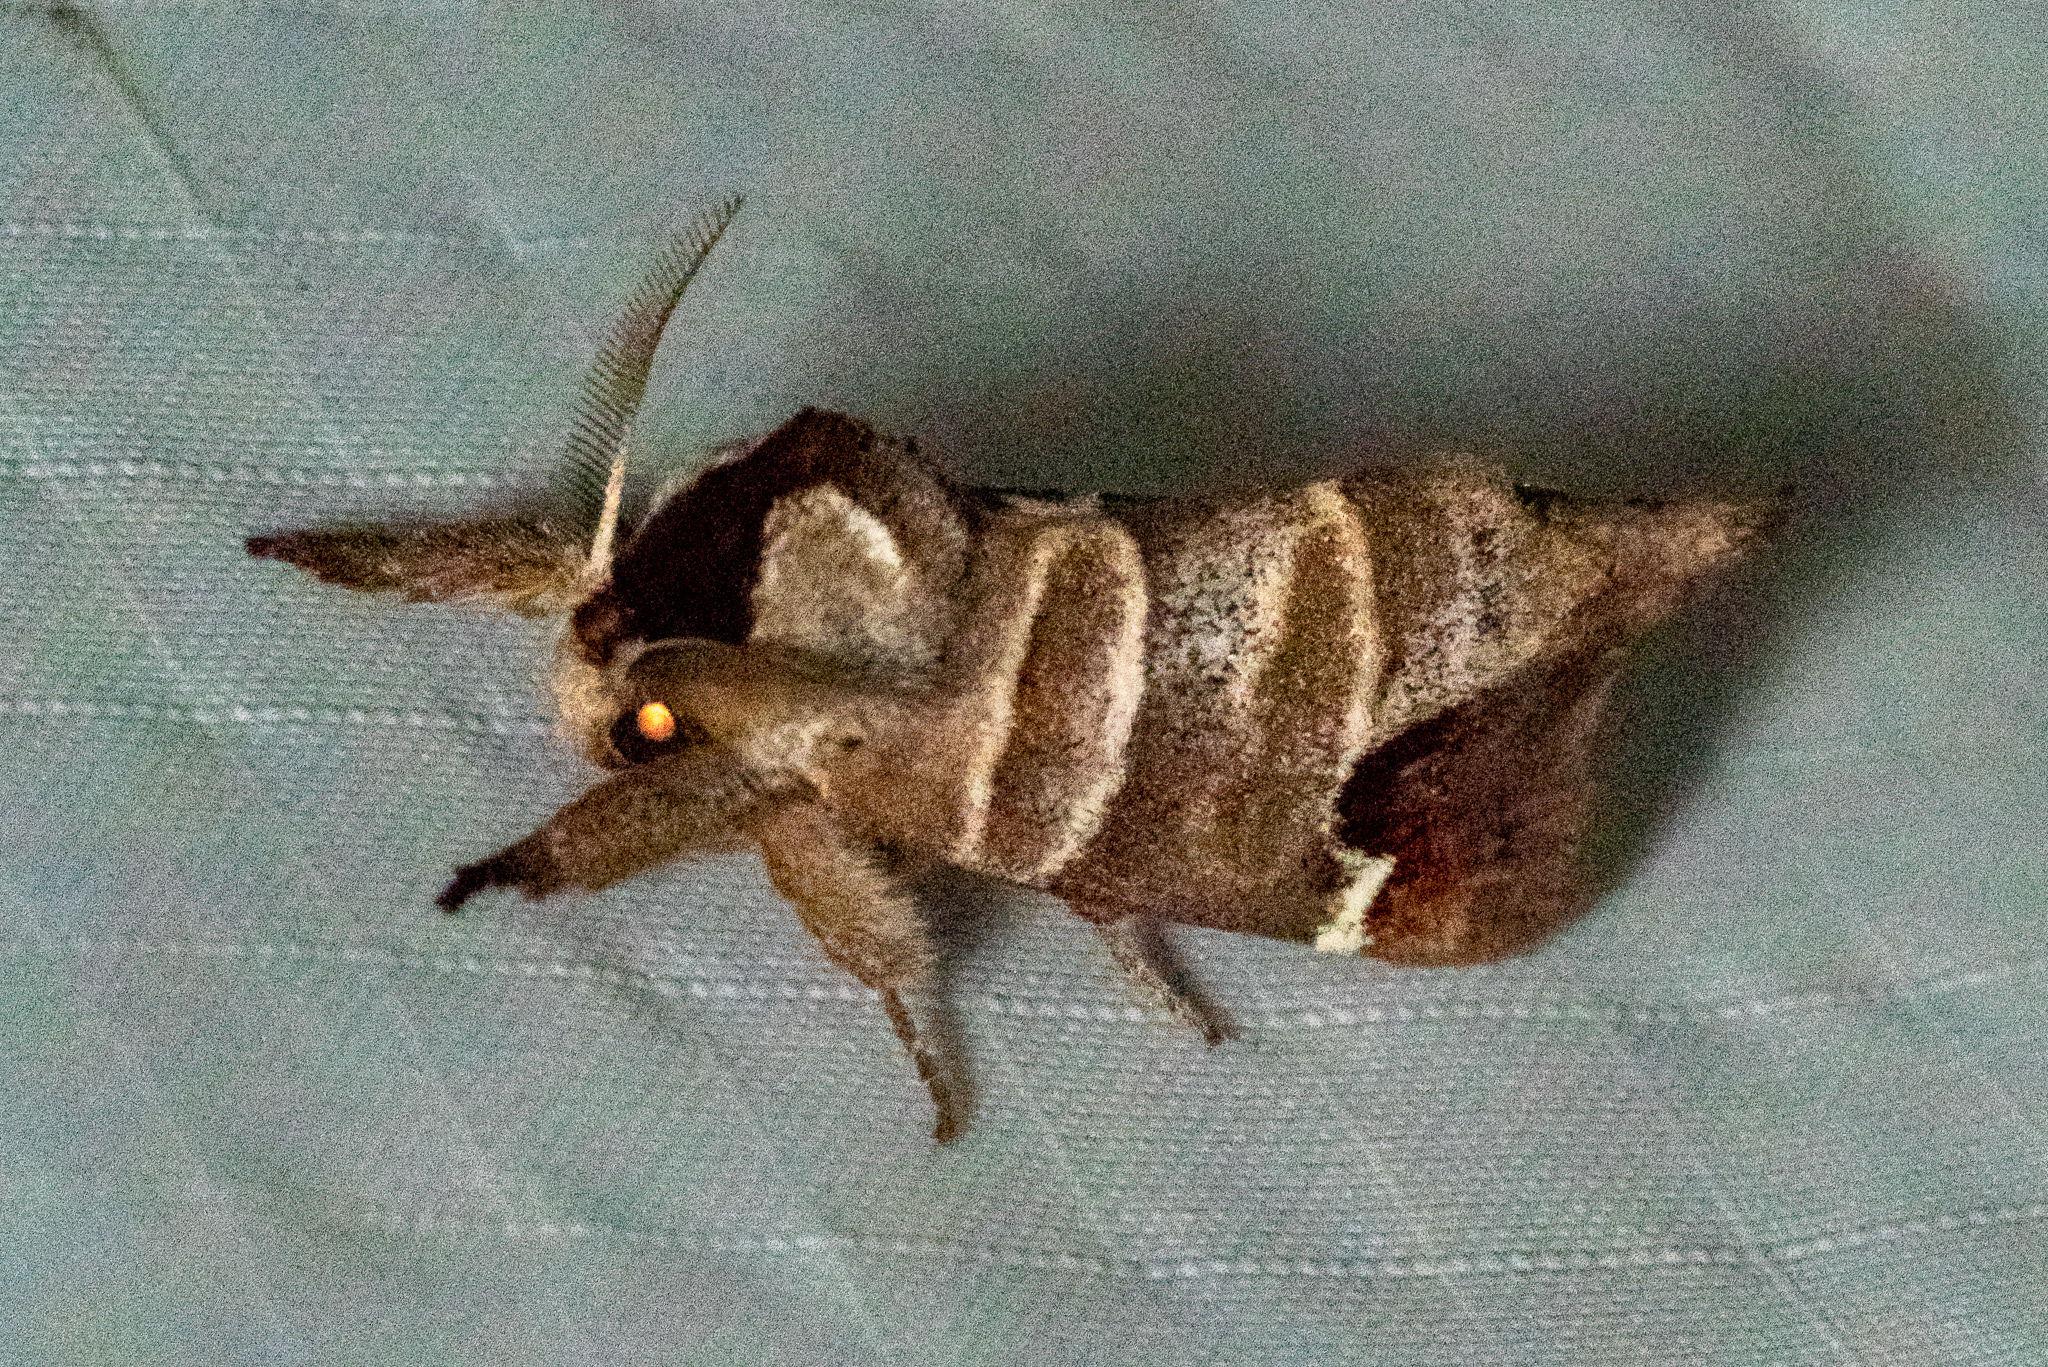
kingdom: Animalia
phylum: Arthropoda
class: Insecta
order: Lepidoptera
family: Notodontidae
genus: Clostera
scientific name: Clostera albosigma
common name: Sigmoid prominent
